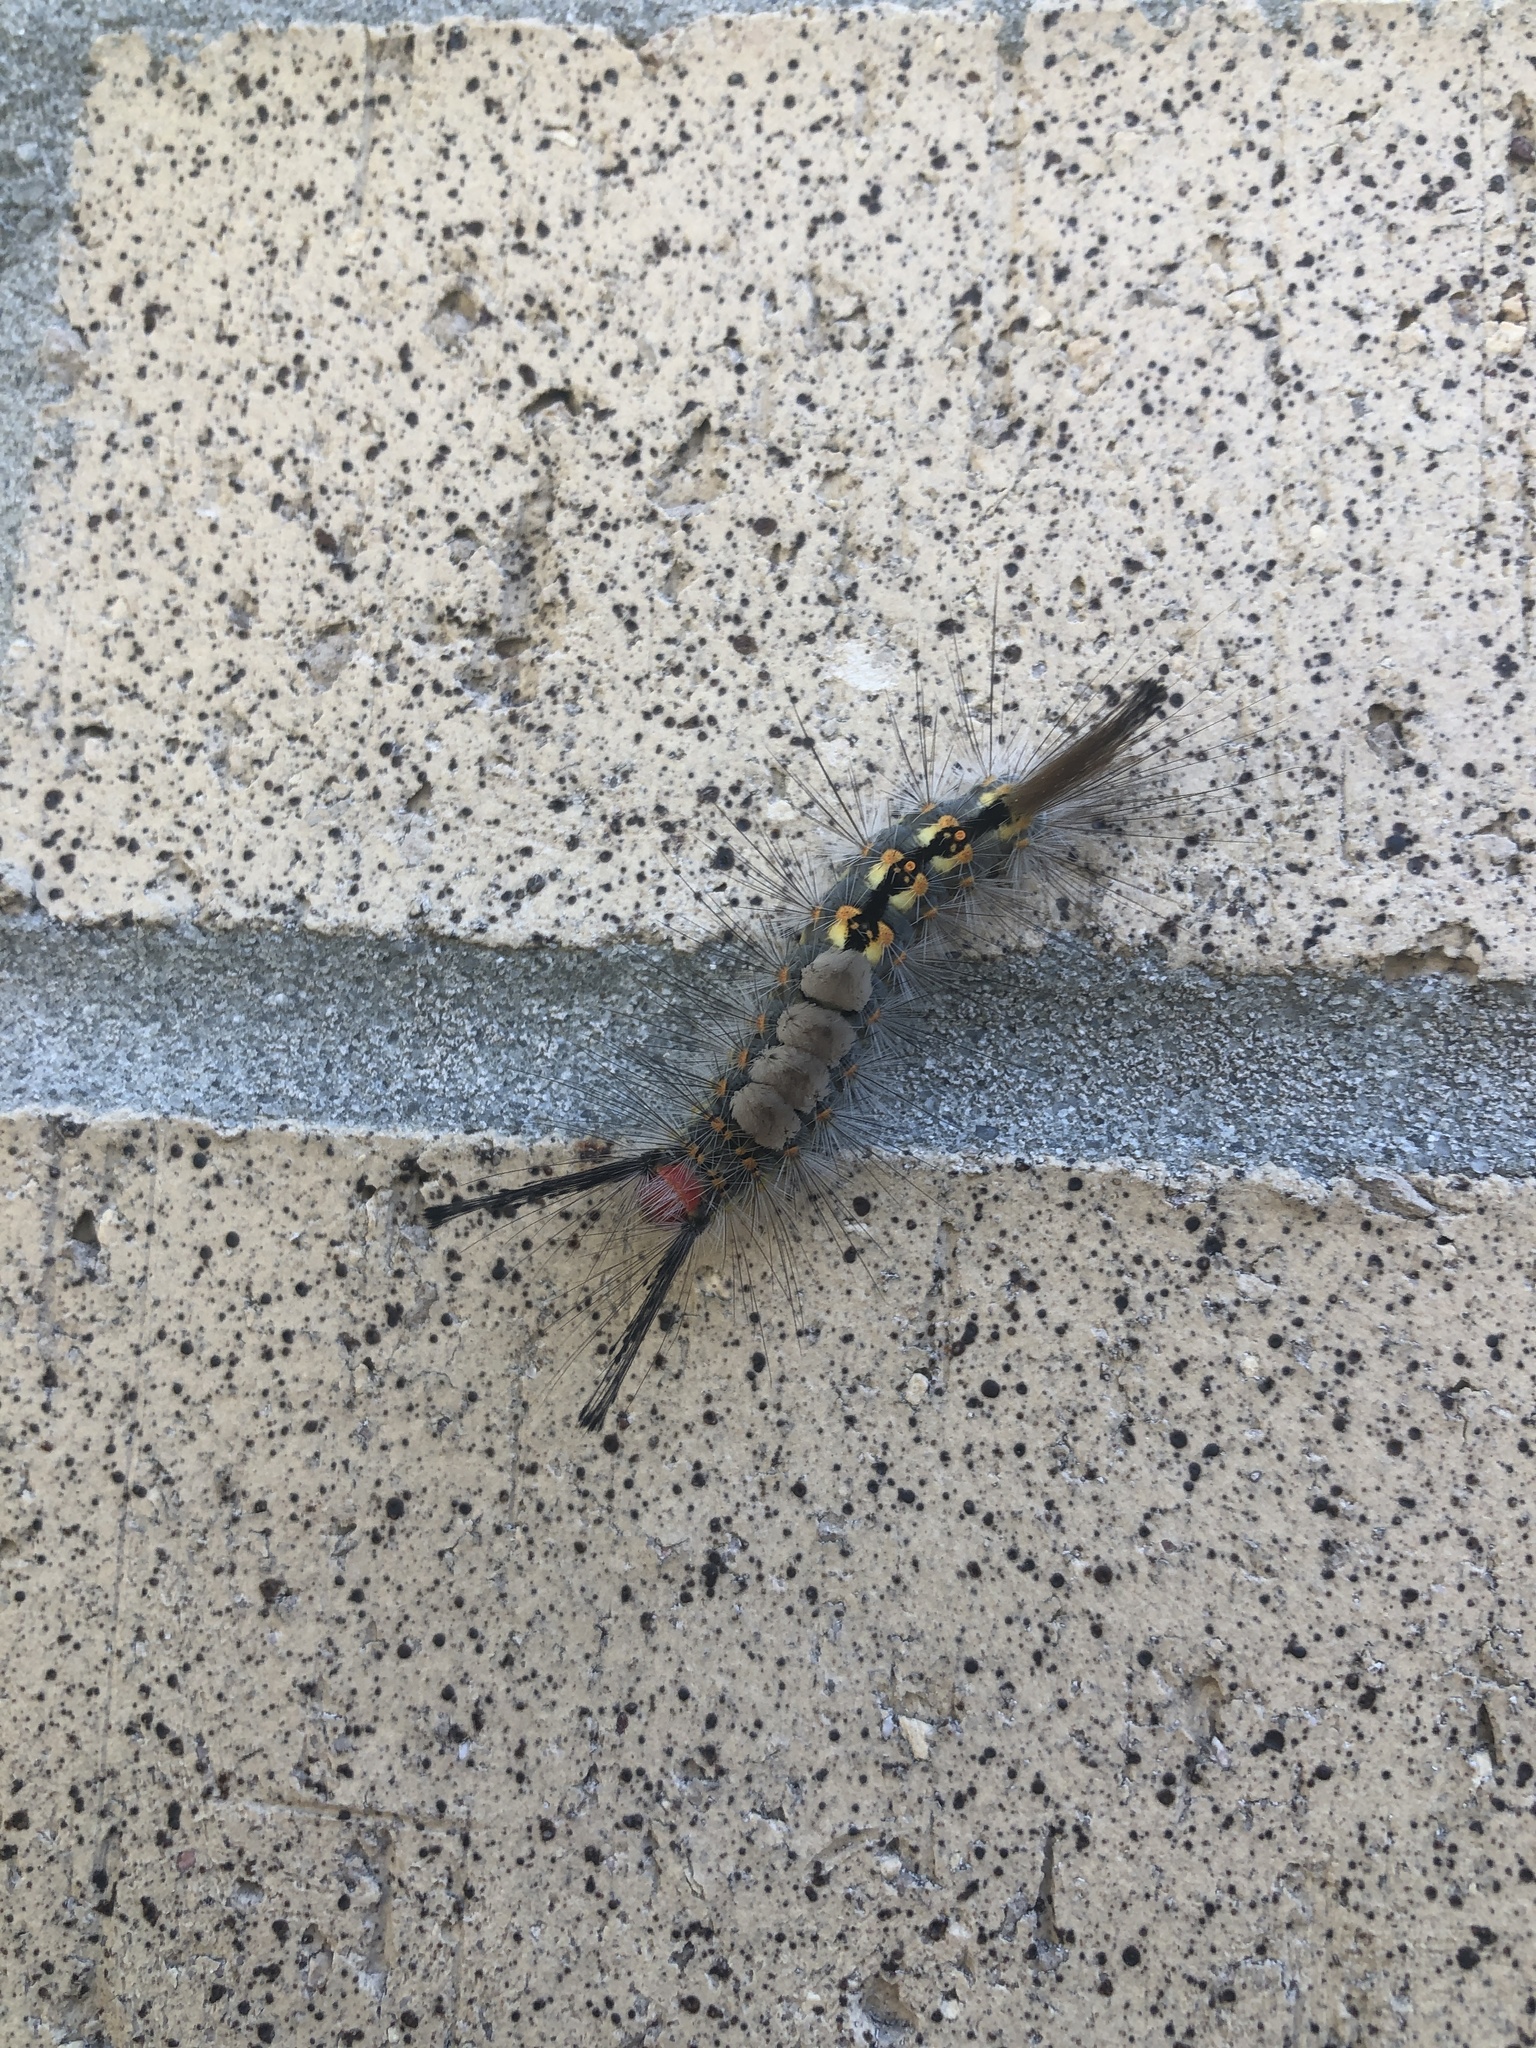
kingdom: Animalia
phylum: Arthropoda
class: Insecta
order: Lepidoptera
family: Erebidae
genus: Orgyia
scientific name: Orgyia detrita
